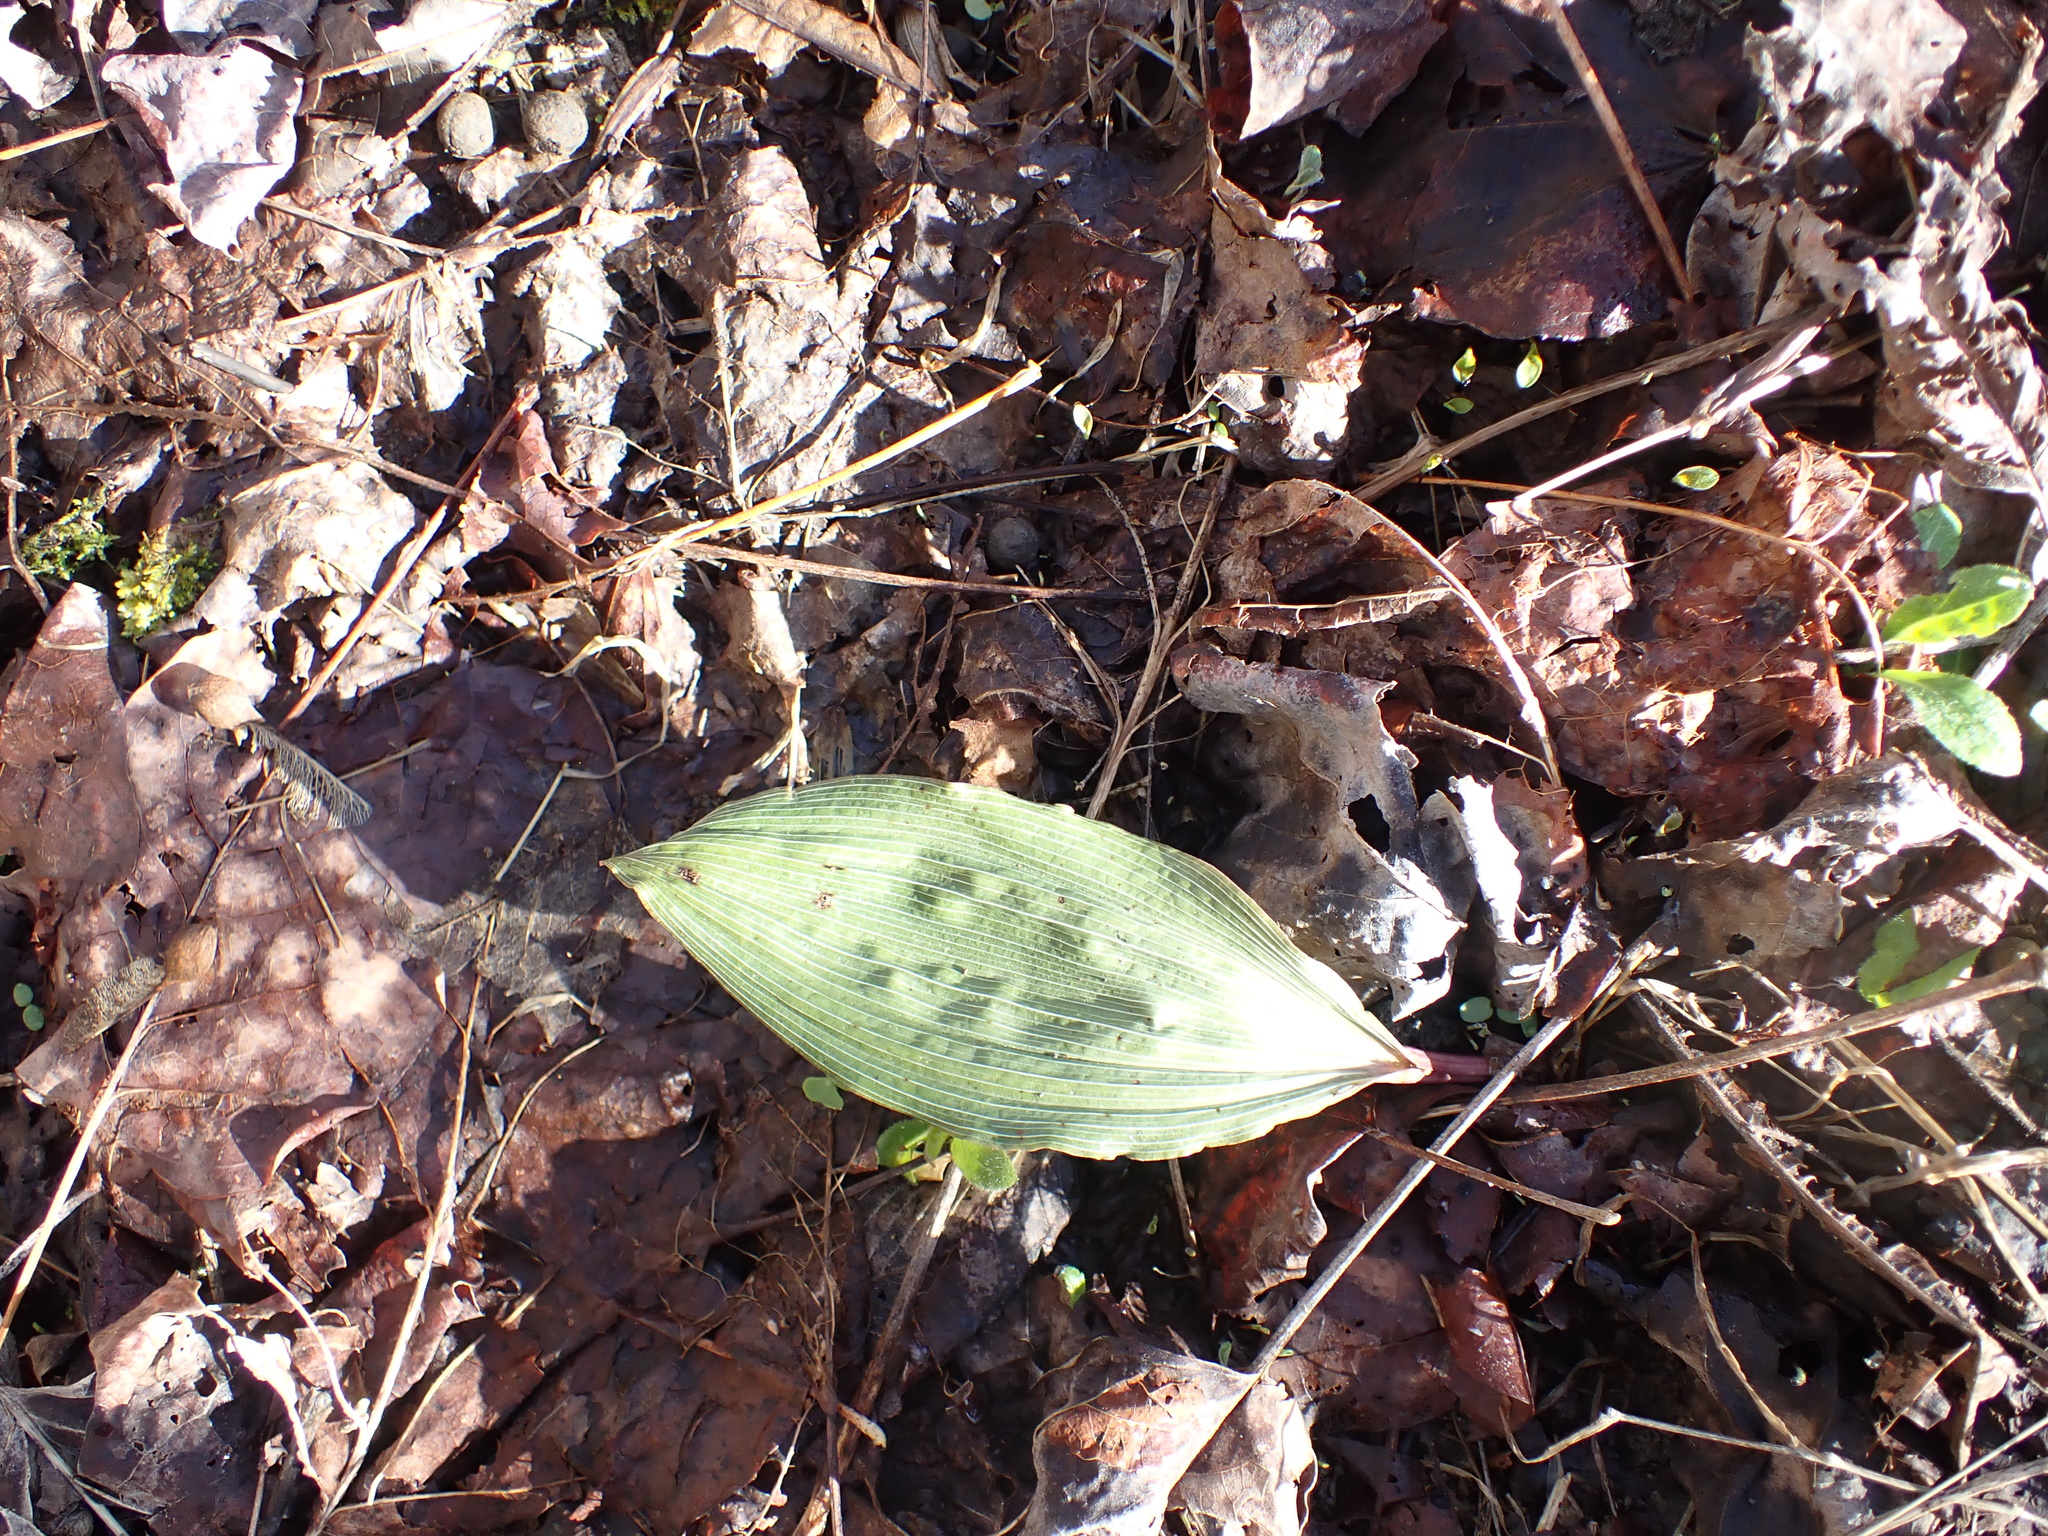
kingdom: Plantae
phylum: Tracheophyta
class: Liliopsida
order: Asparagales
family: Orchidaceae
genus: Aplectrum
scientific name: Aplectrum hyemale
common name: Adam-and-eve
